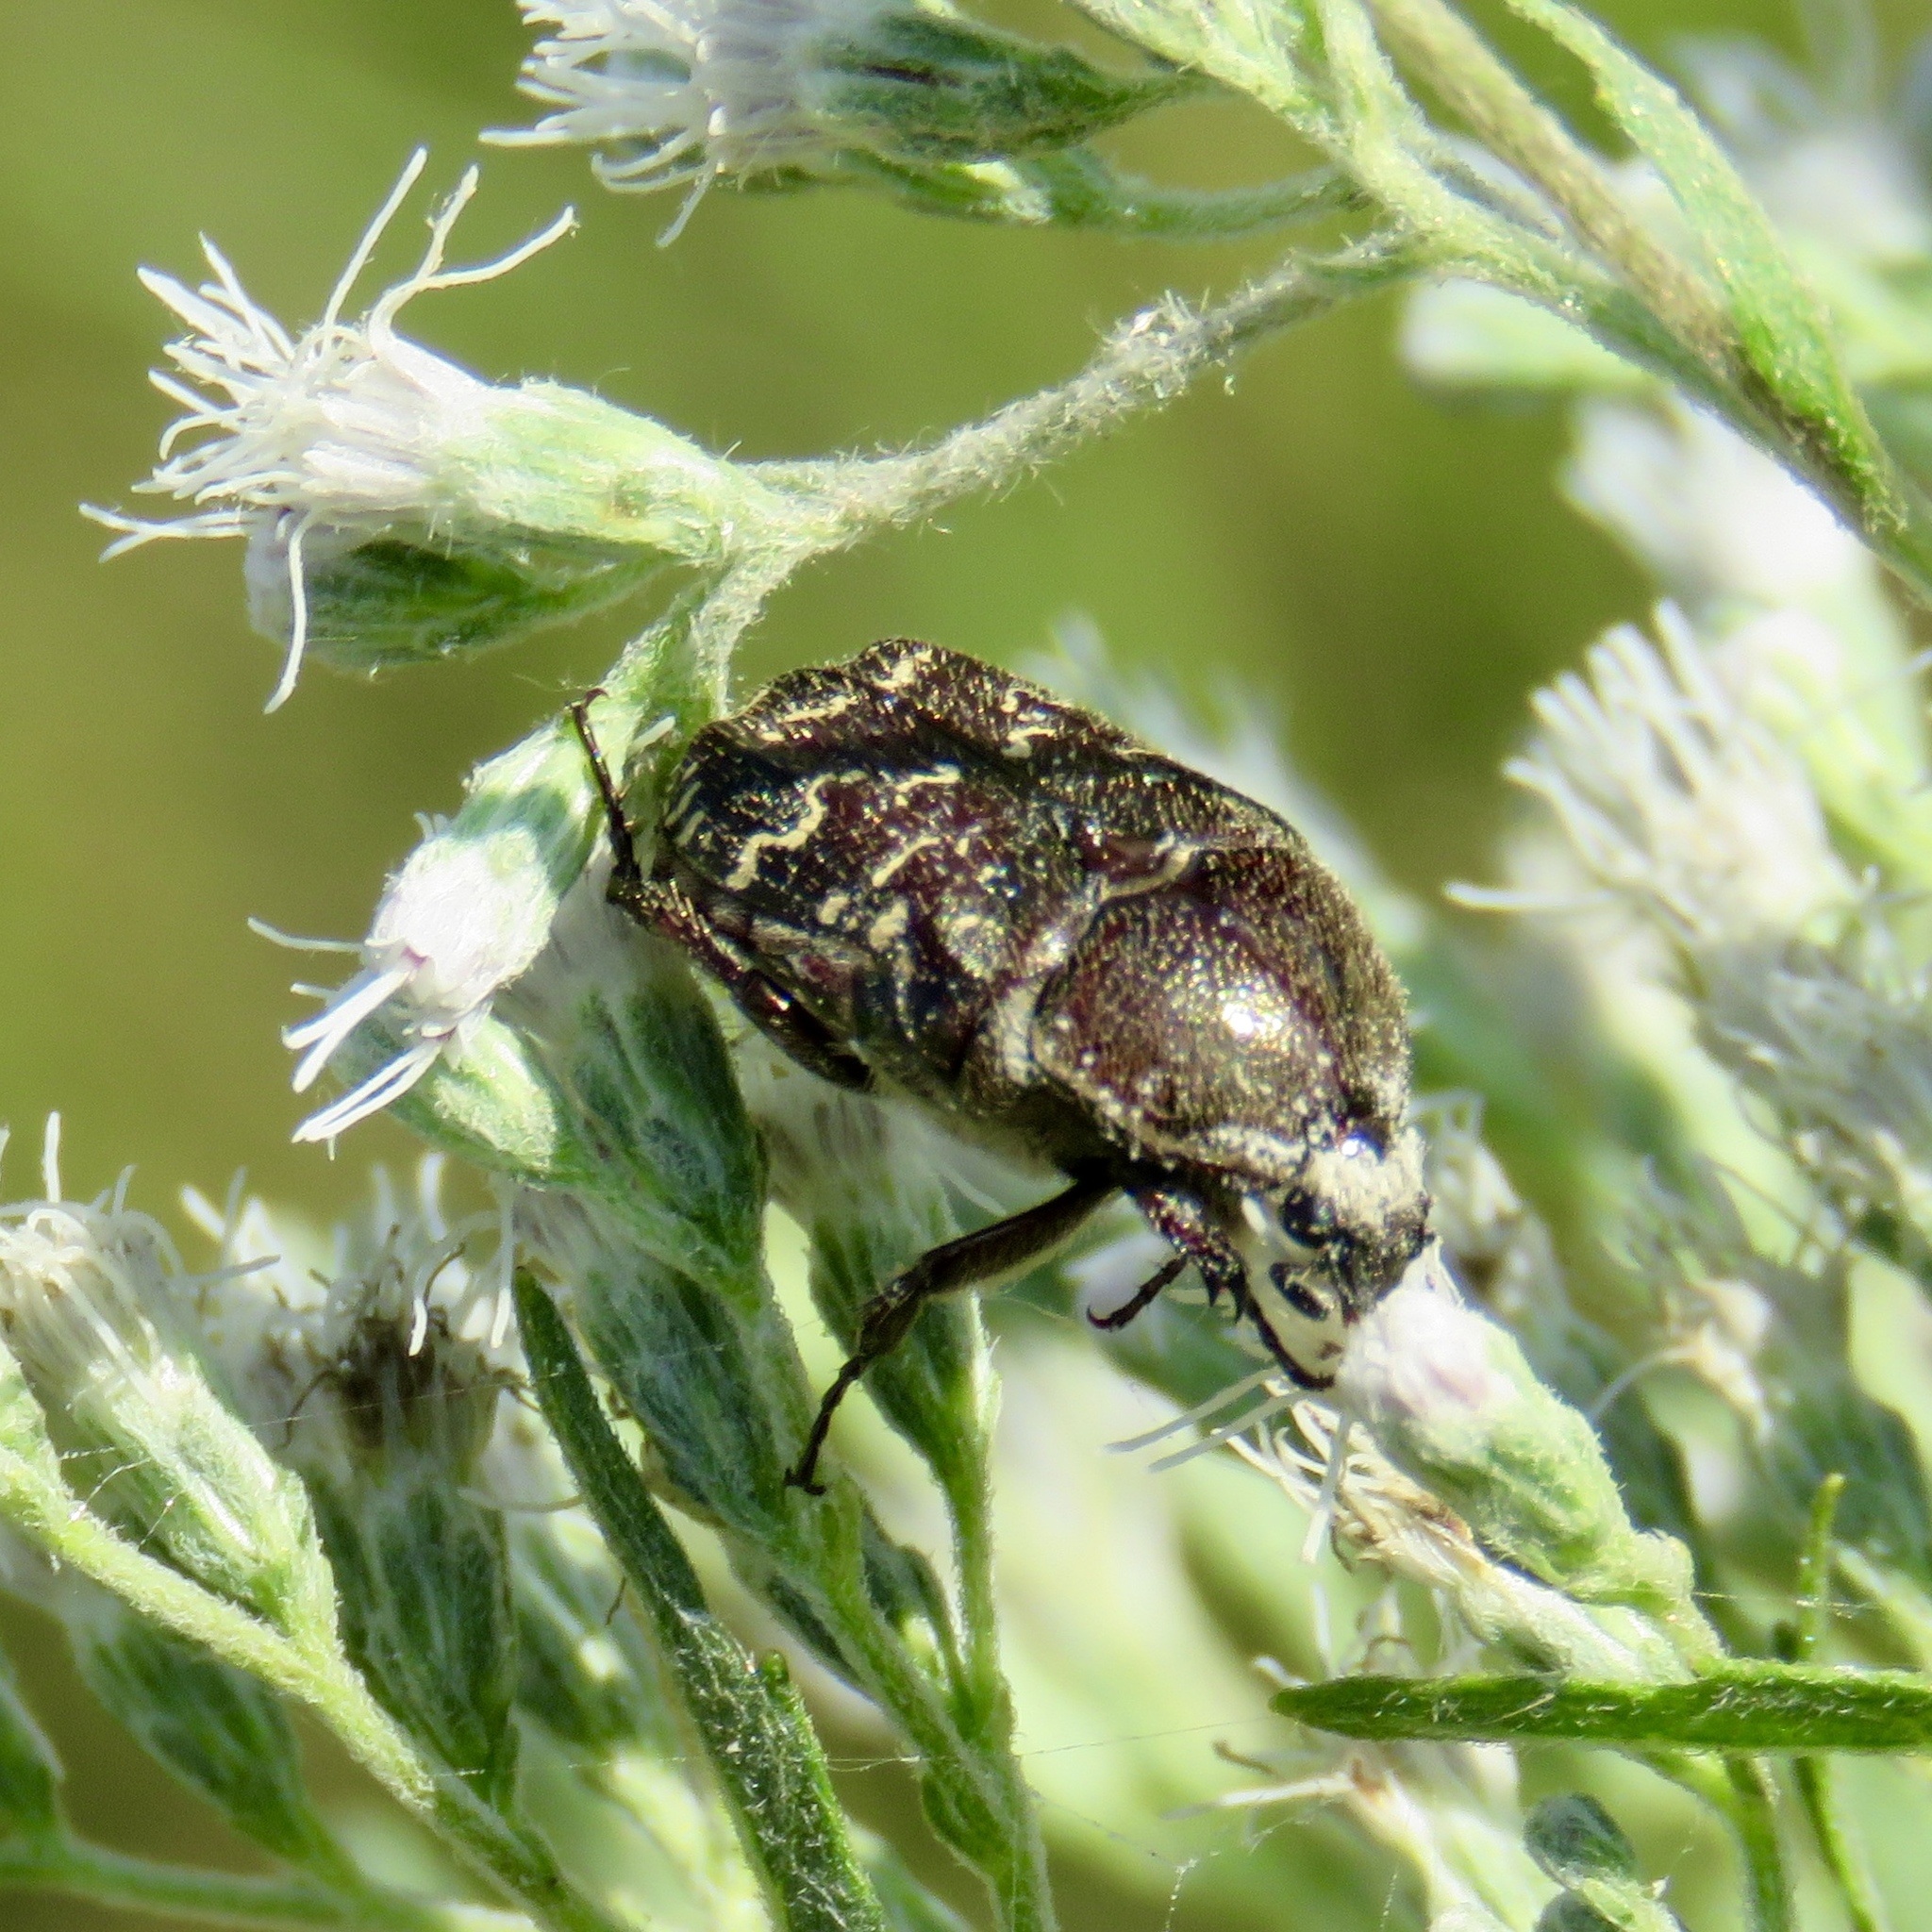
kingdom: Animalia
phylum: Arthropoda
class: Insecta
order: Coleoptera
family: Scarabaeidae
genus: Euphoria
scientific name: Euphoria sepulcralis
